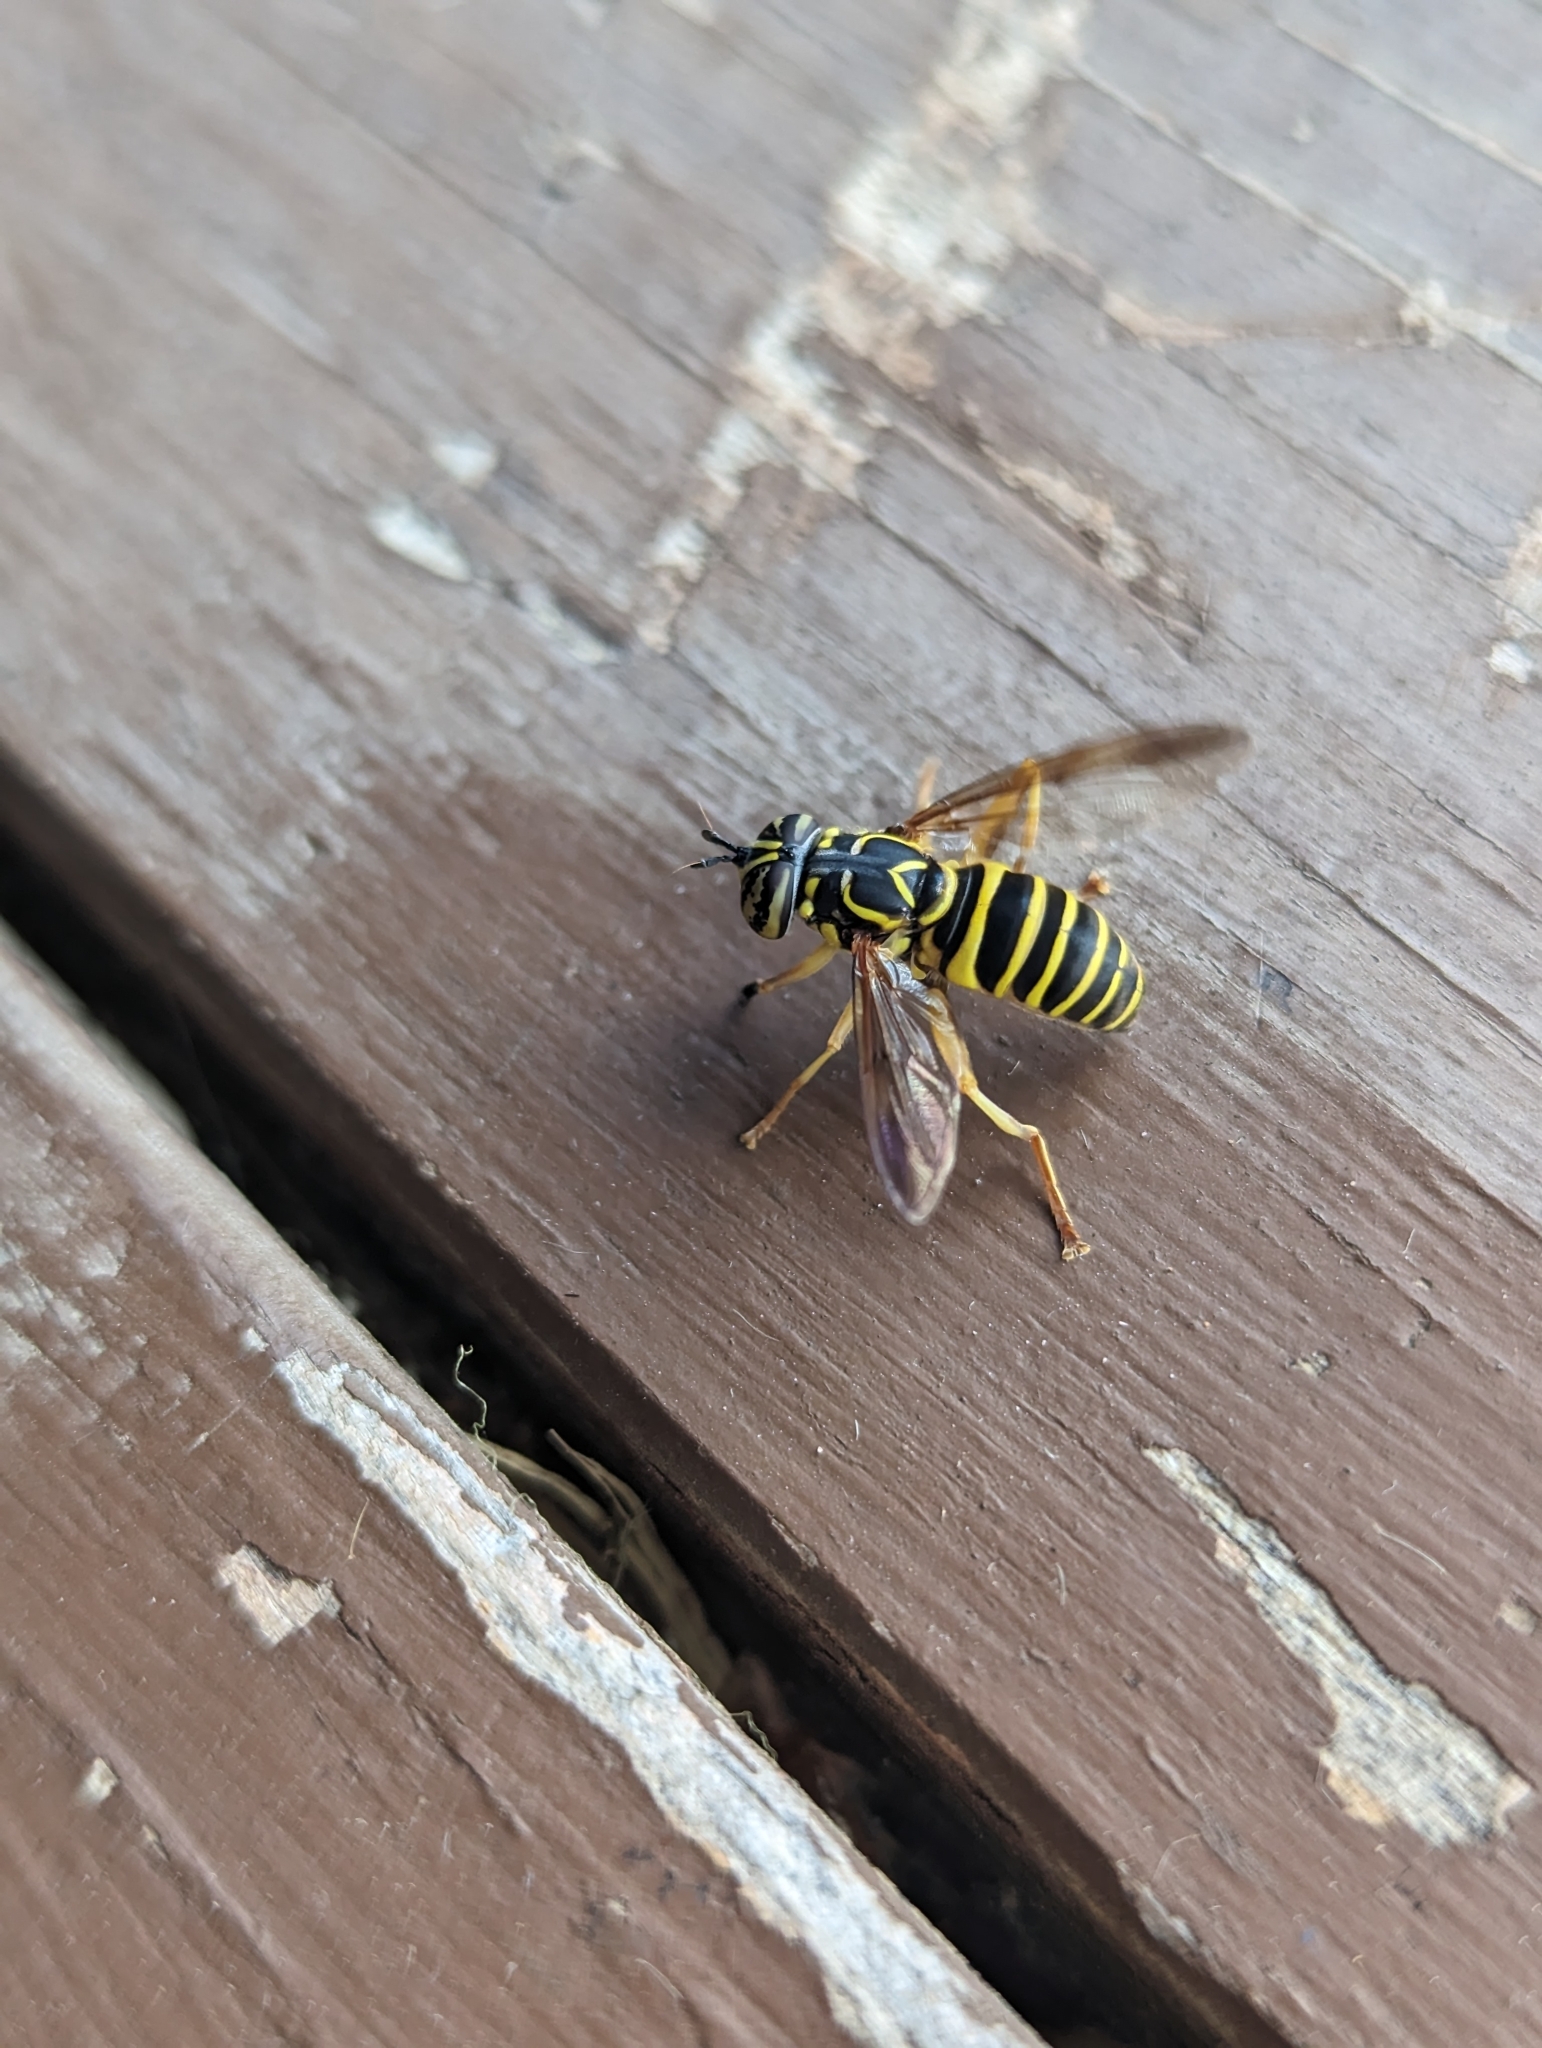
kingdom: Animalia
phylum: Arthropoda
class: Insecta
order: Diptera
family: Syrphidae
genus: Spilomyia
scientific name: Spilomyia longicornis
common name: Eastern hornet fly
